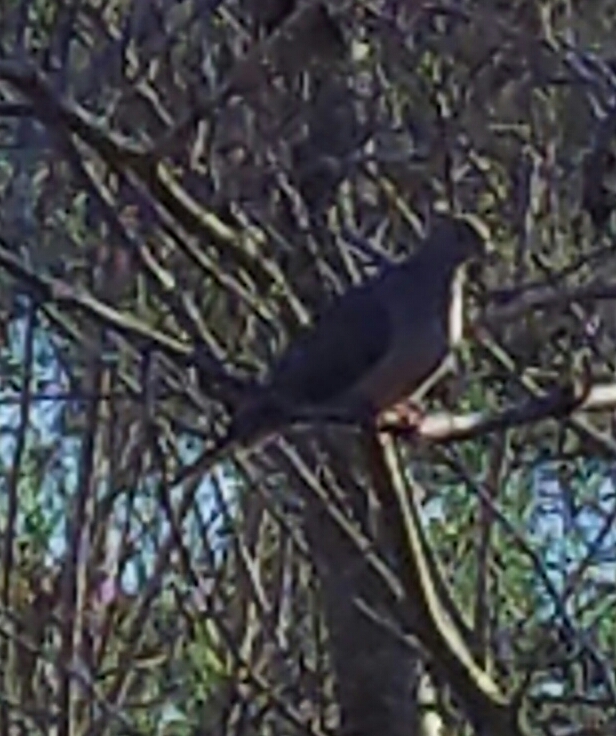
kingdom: Animalia
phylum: Chordata
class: Aves
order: Columbiformes
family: Columbidae
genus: Zenaida
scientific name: Zenaida macroura
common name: Mourning dove
